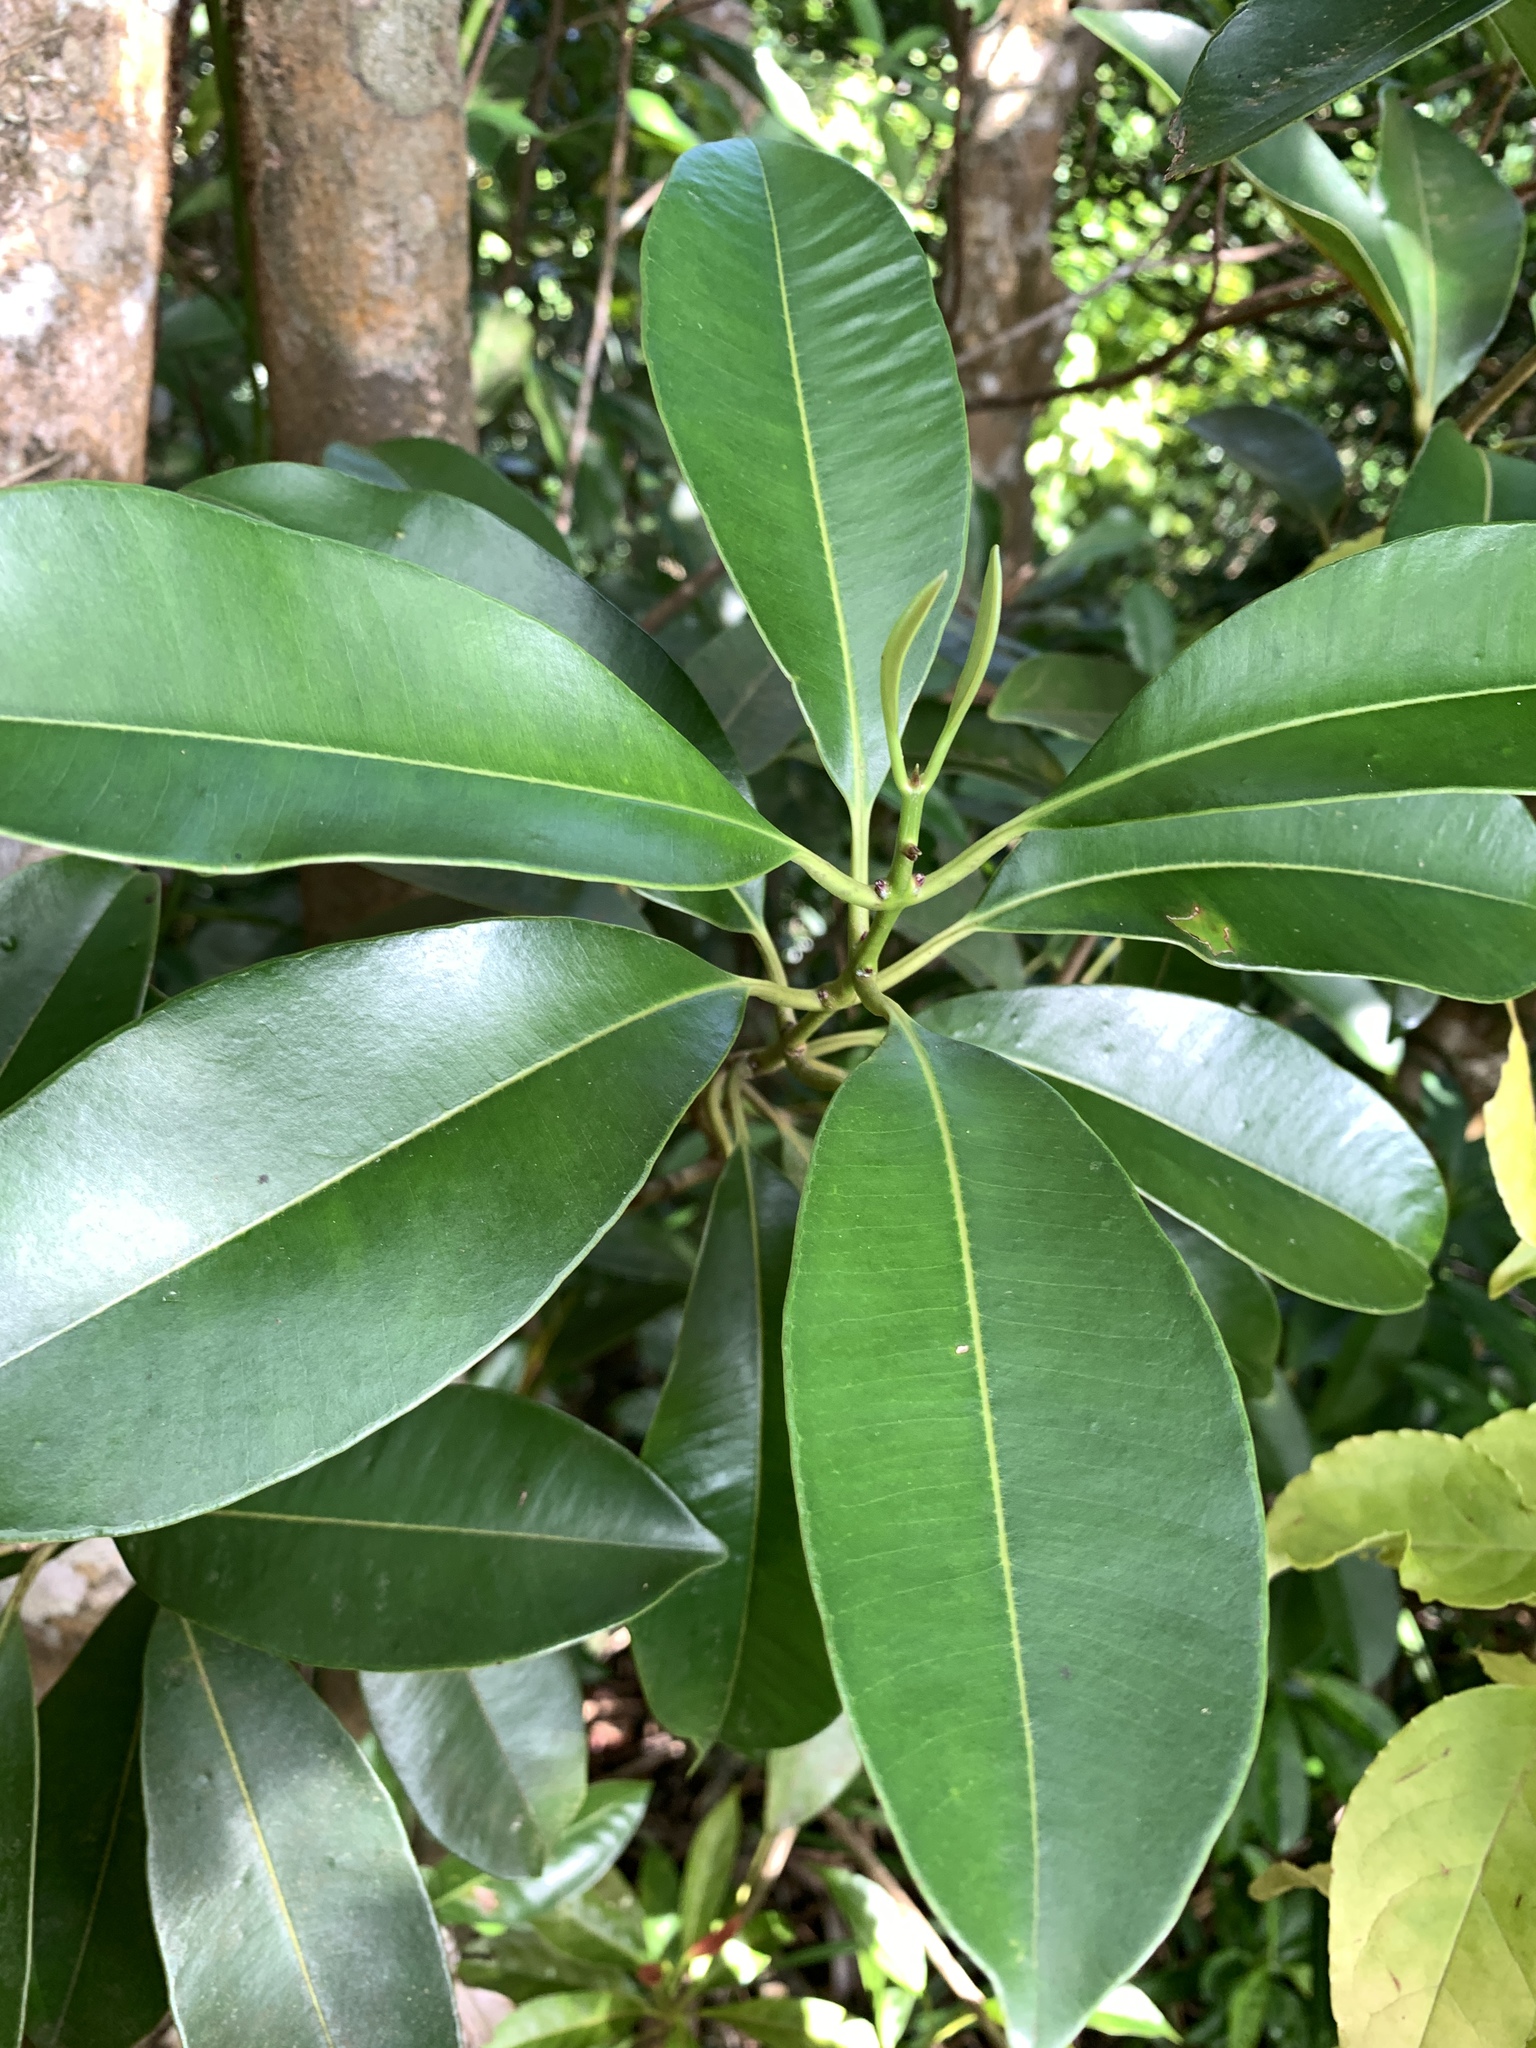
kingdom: Plantae
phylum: Tracheophyta
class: Magnoliopsida
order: Myrtales
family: Myrtaceae
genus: Syzygium
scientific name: Syzygium densinervium
